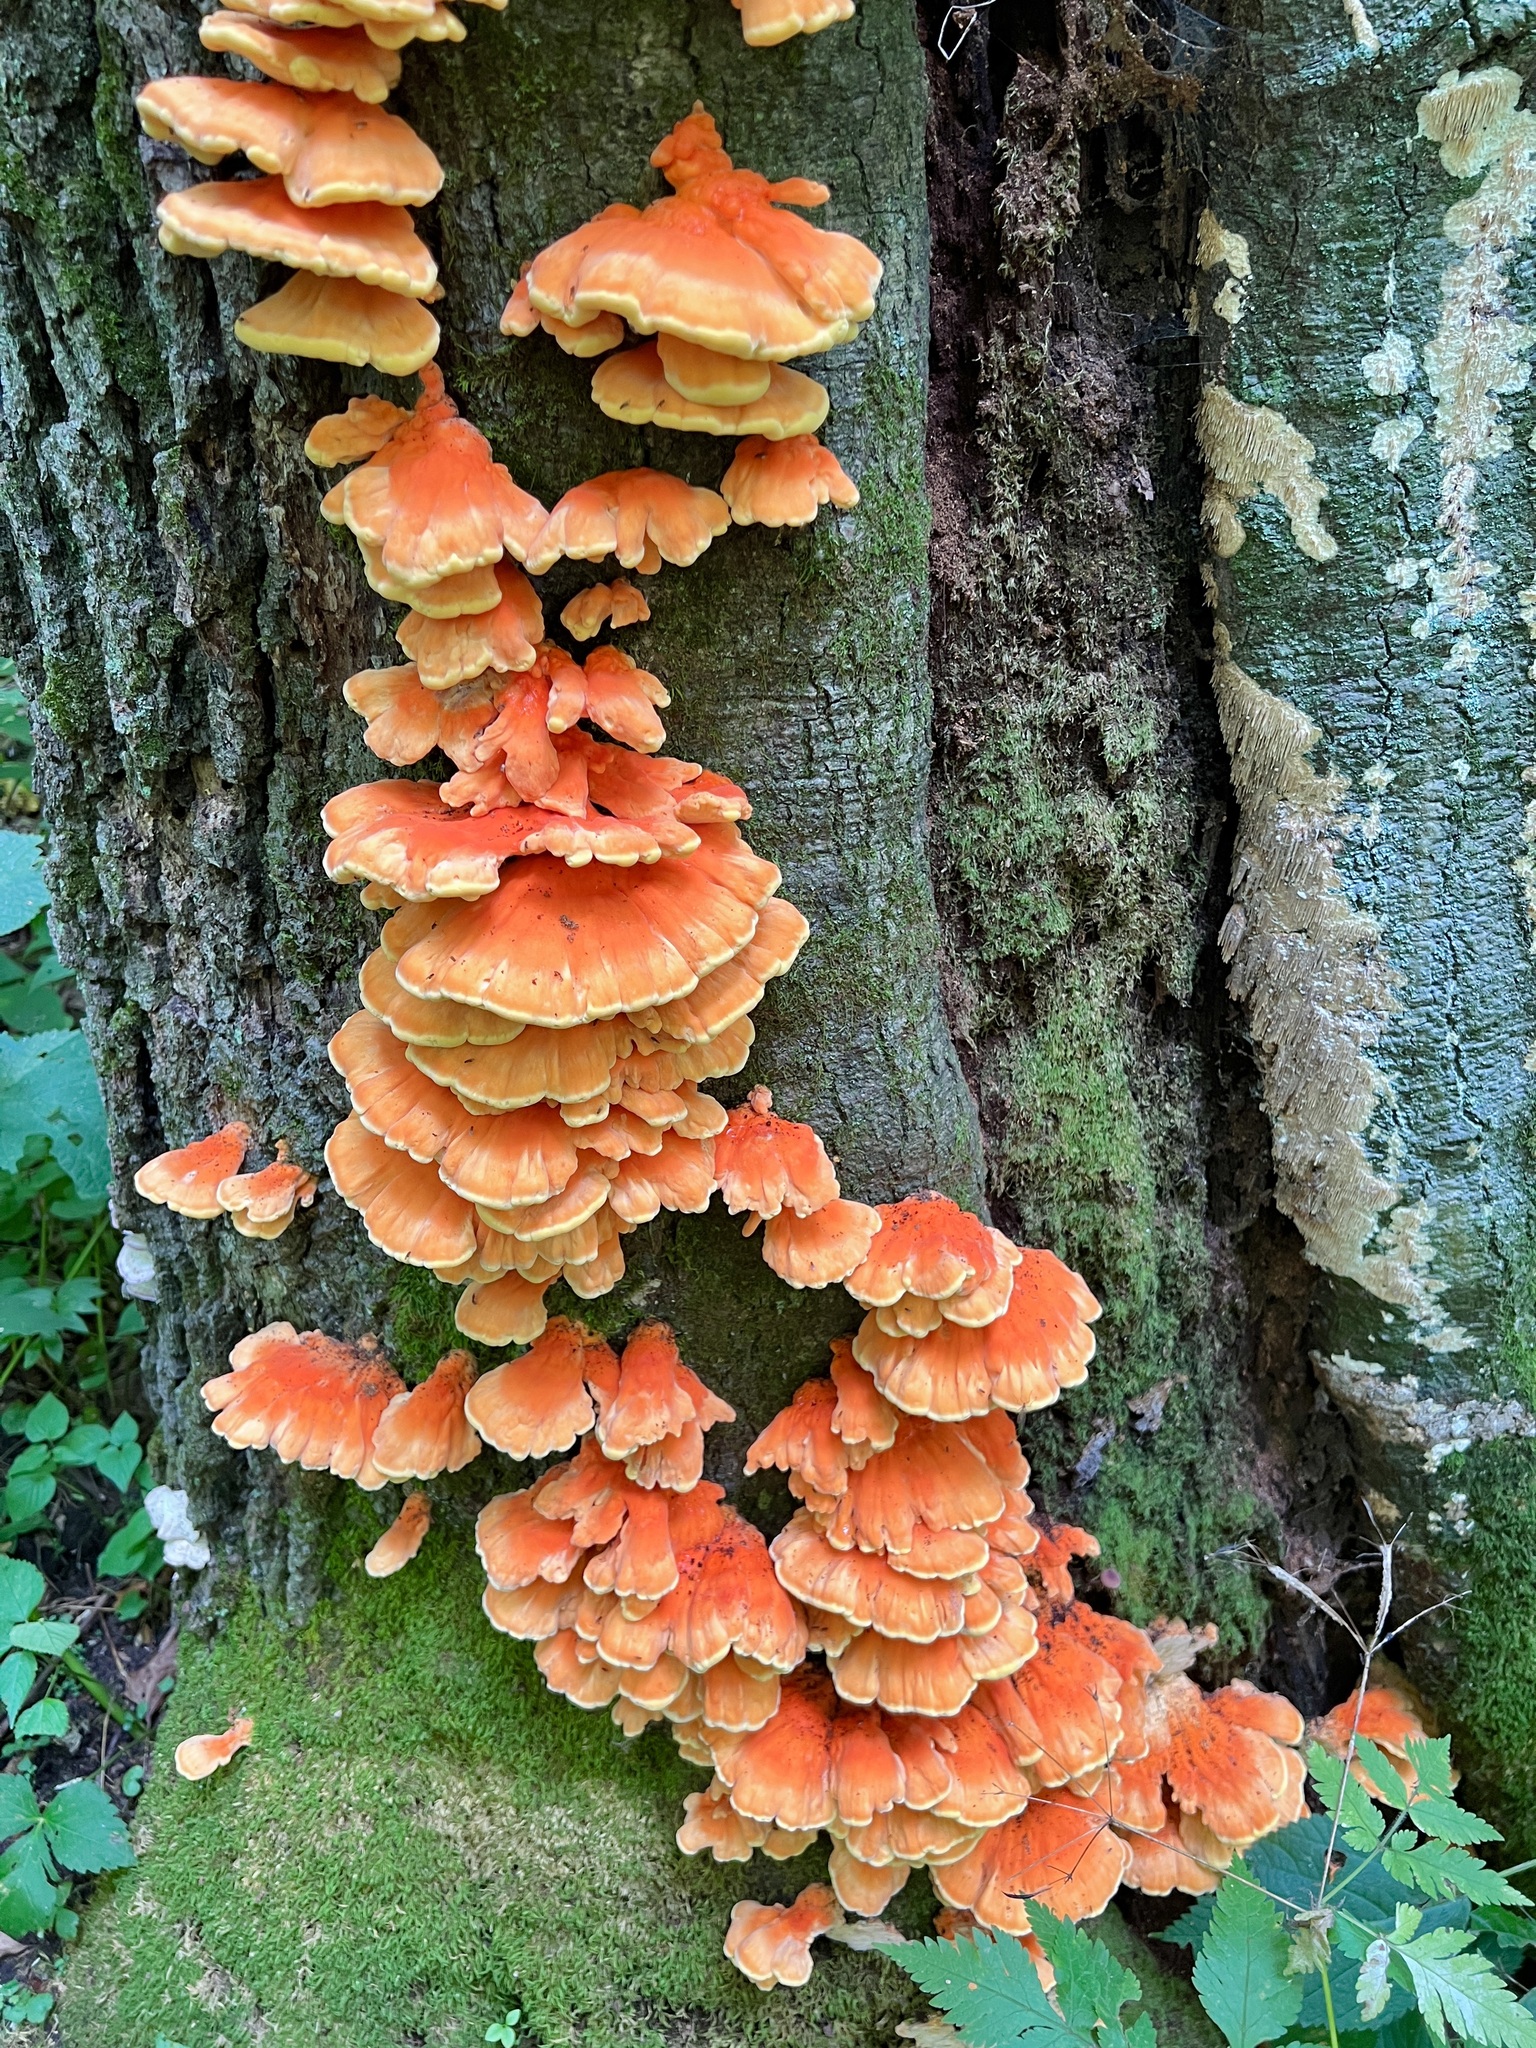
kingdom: Fungi
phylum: Basidiomycota
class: Agaricomycetes
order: Polyporales
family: Laetiporaceae
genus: Laetiporus
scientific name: Laetiporus sulphureus
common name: Chicken of the woods
